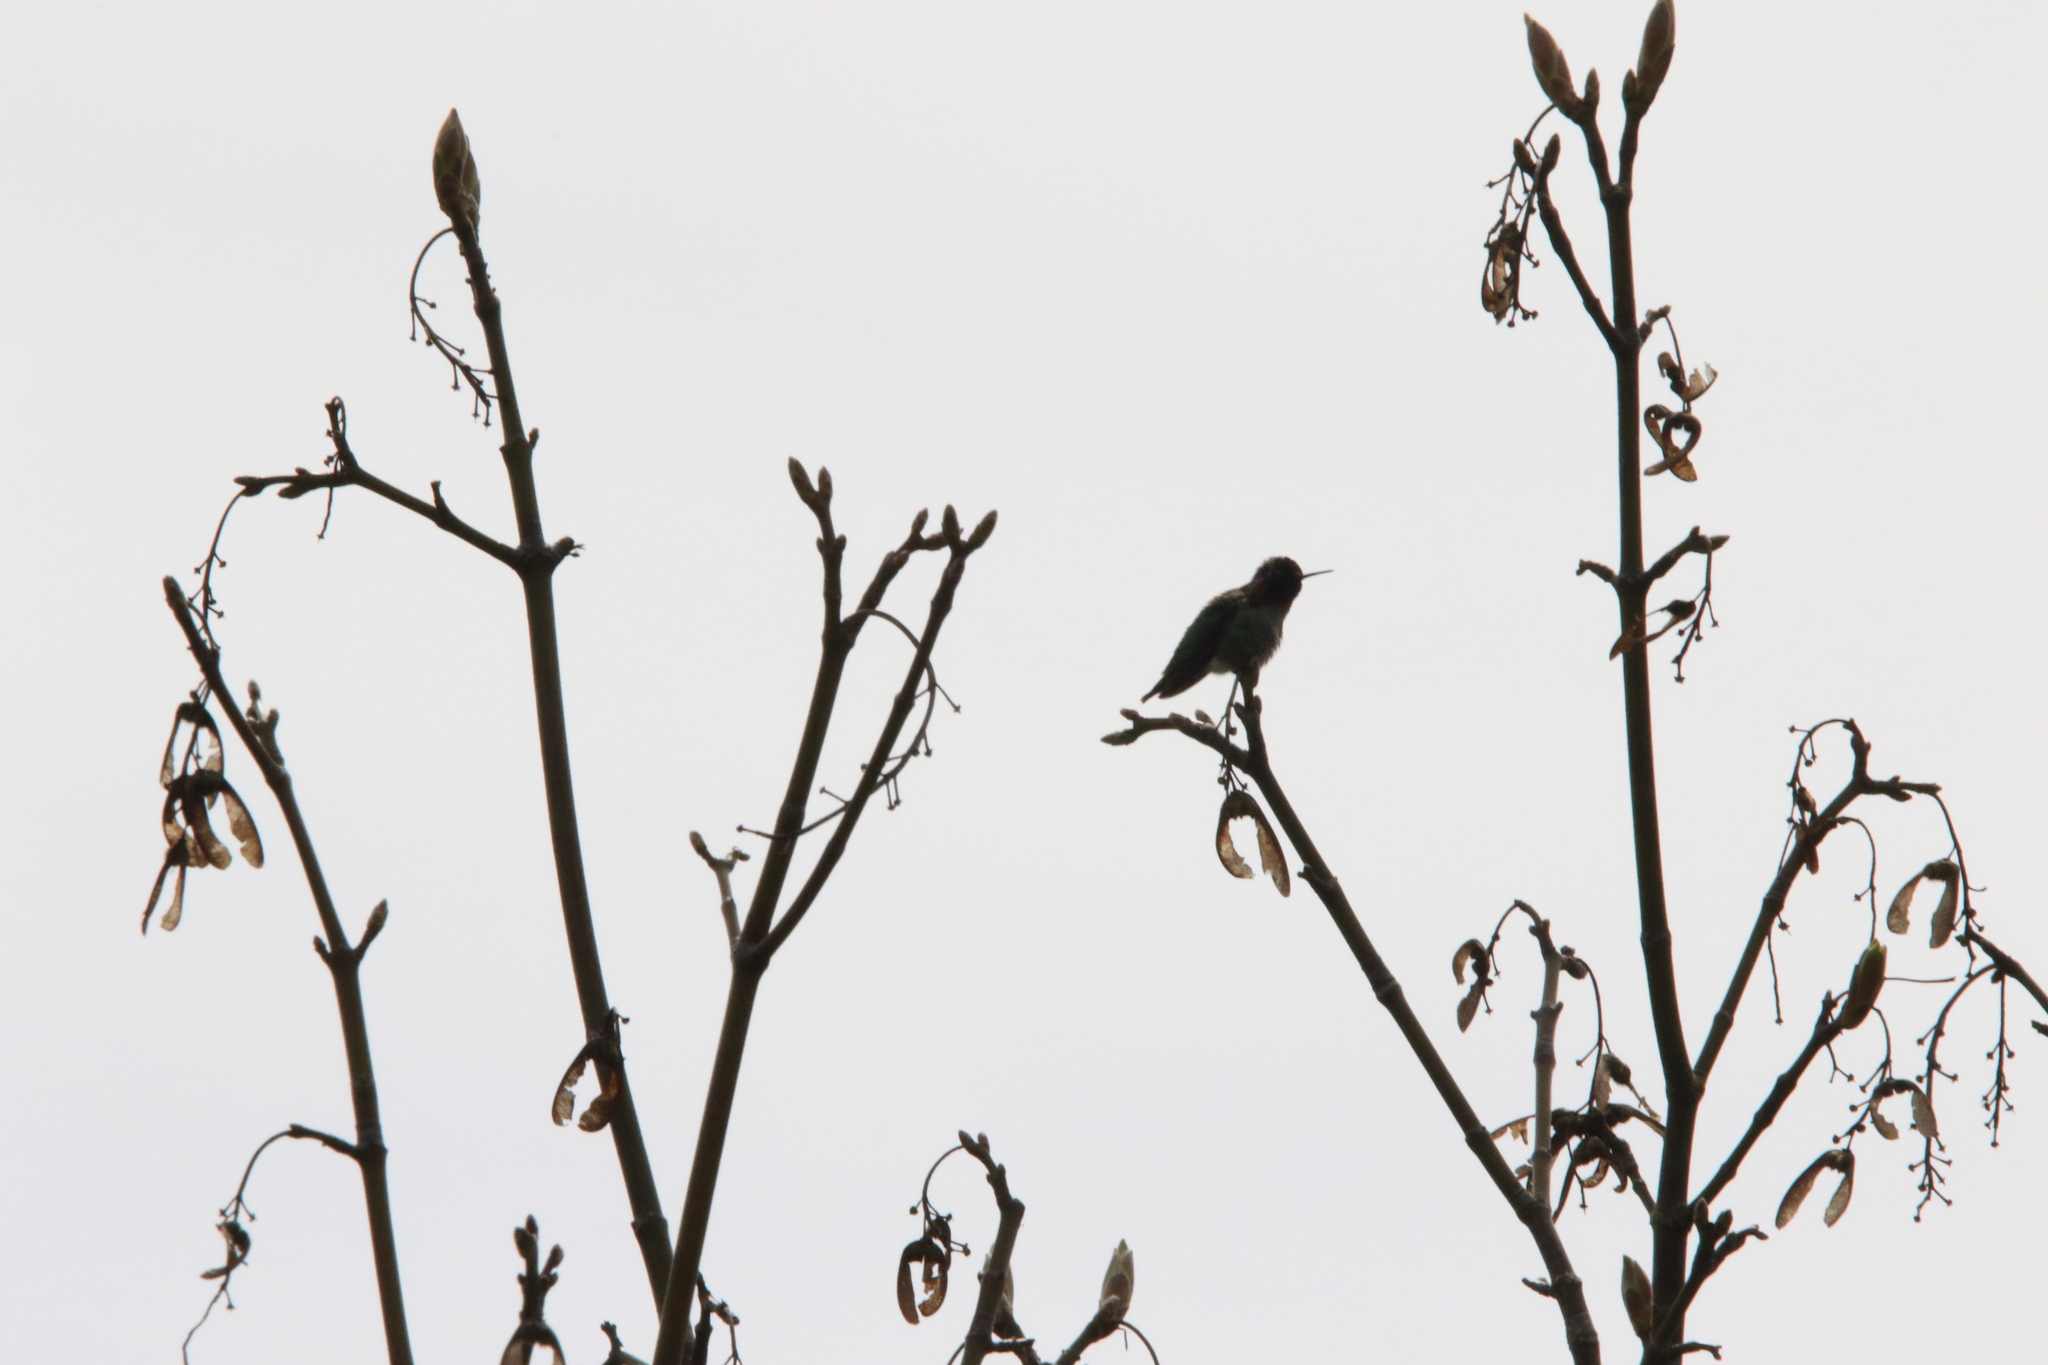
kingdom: Animalia
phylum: Chordata
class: Aves
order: Apodiformes
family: Trochilidae
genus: Calypte
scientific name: Calypte anna
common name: Anna's hummingbird
